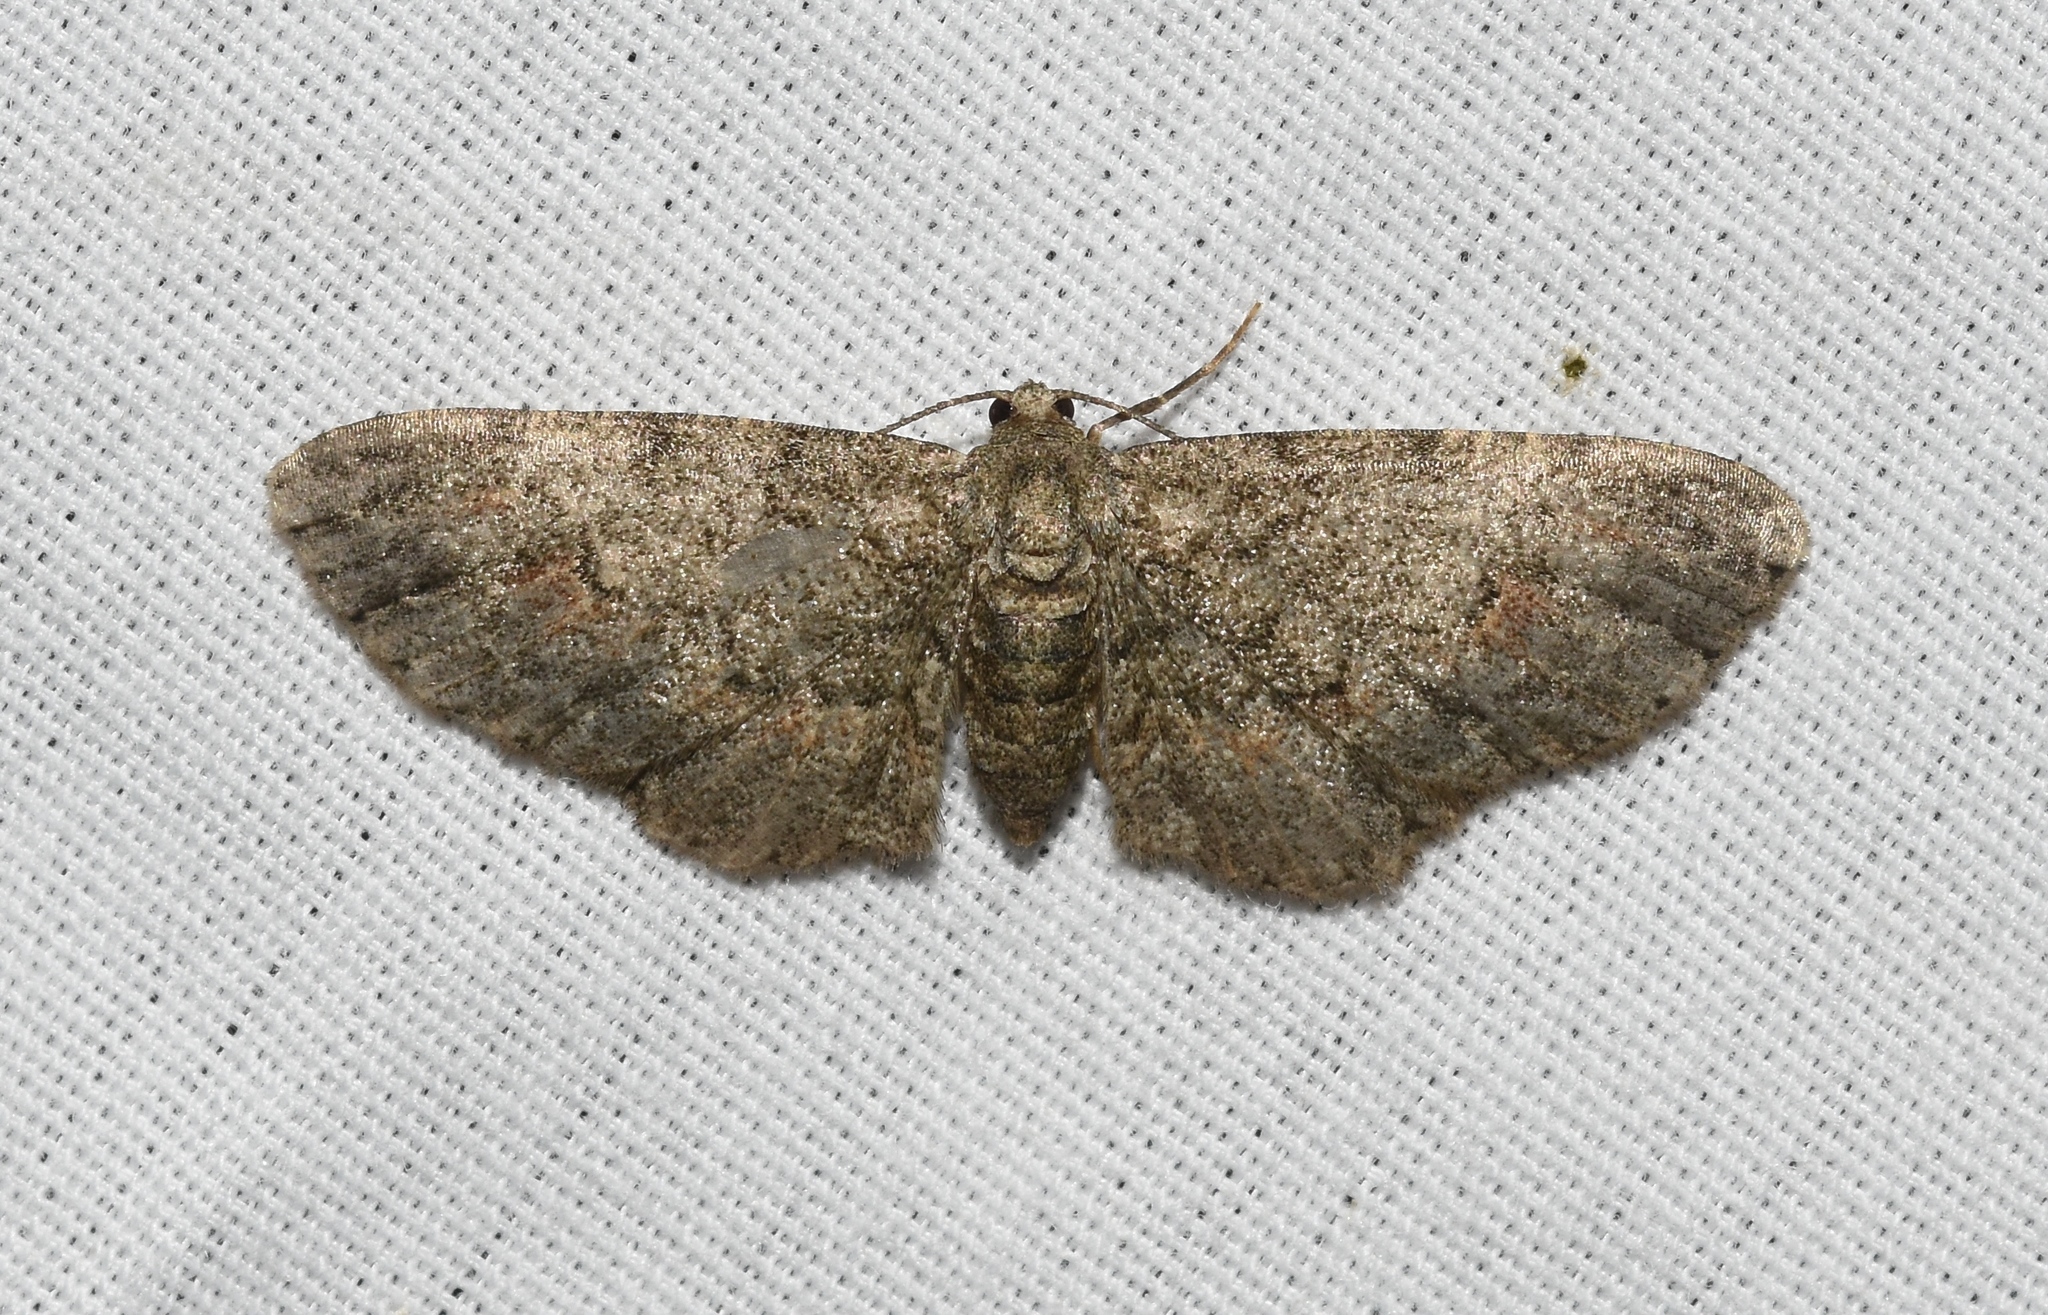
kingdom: Animalia
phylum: Arthropoda
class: Insecta
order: Lepidoptera
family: Geometridae
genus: Glenoides
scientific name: Glenoides texanaria
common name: Texas gray
